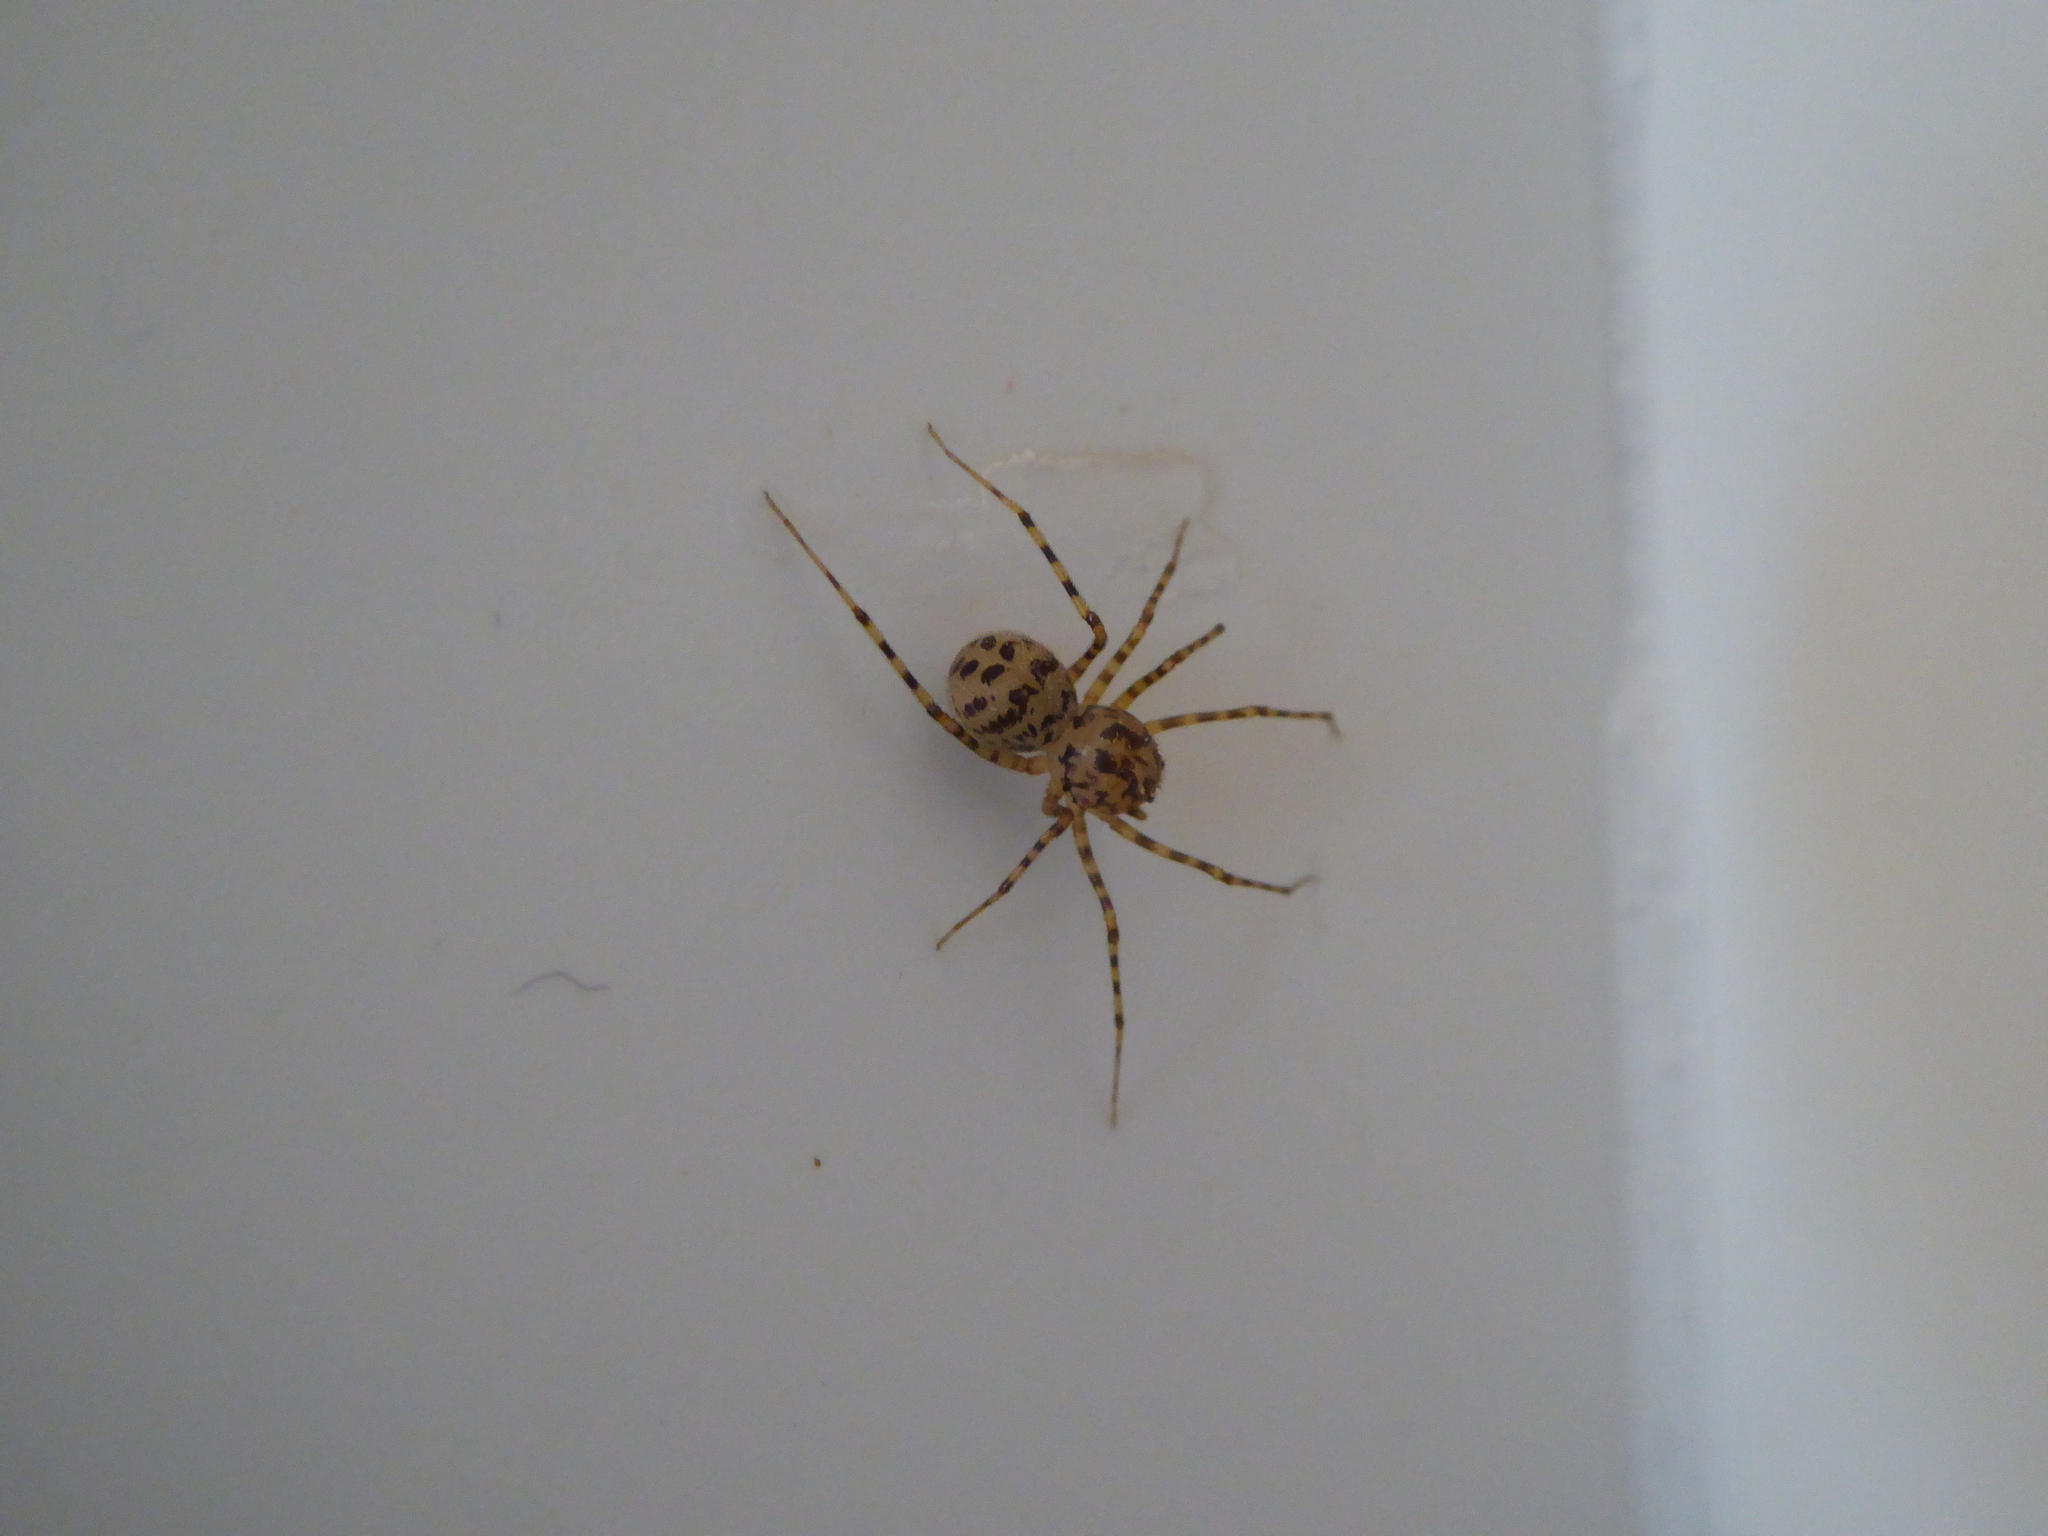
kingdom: Animalia
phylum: Arthropoda
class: Arachnida
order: Araneae
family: Scytodidae
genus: Scytodes
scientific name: Scytodes thoracica
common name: Spitting spider
